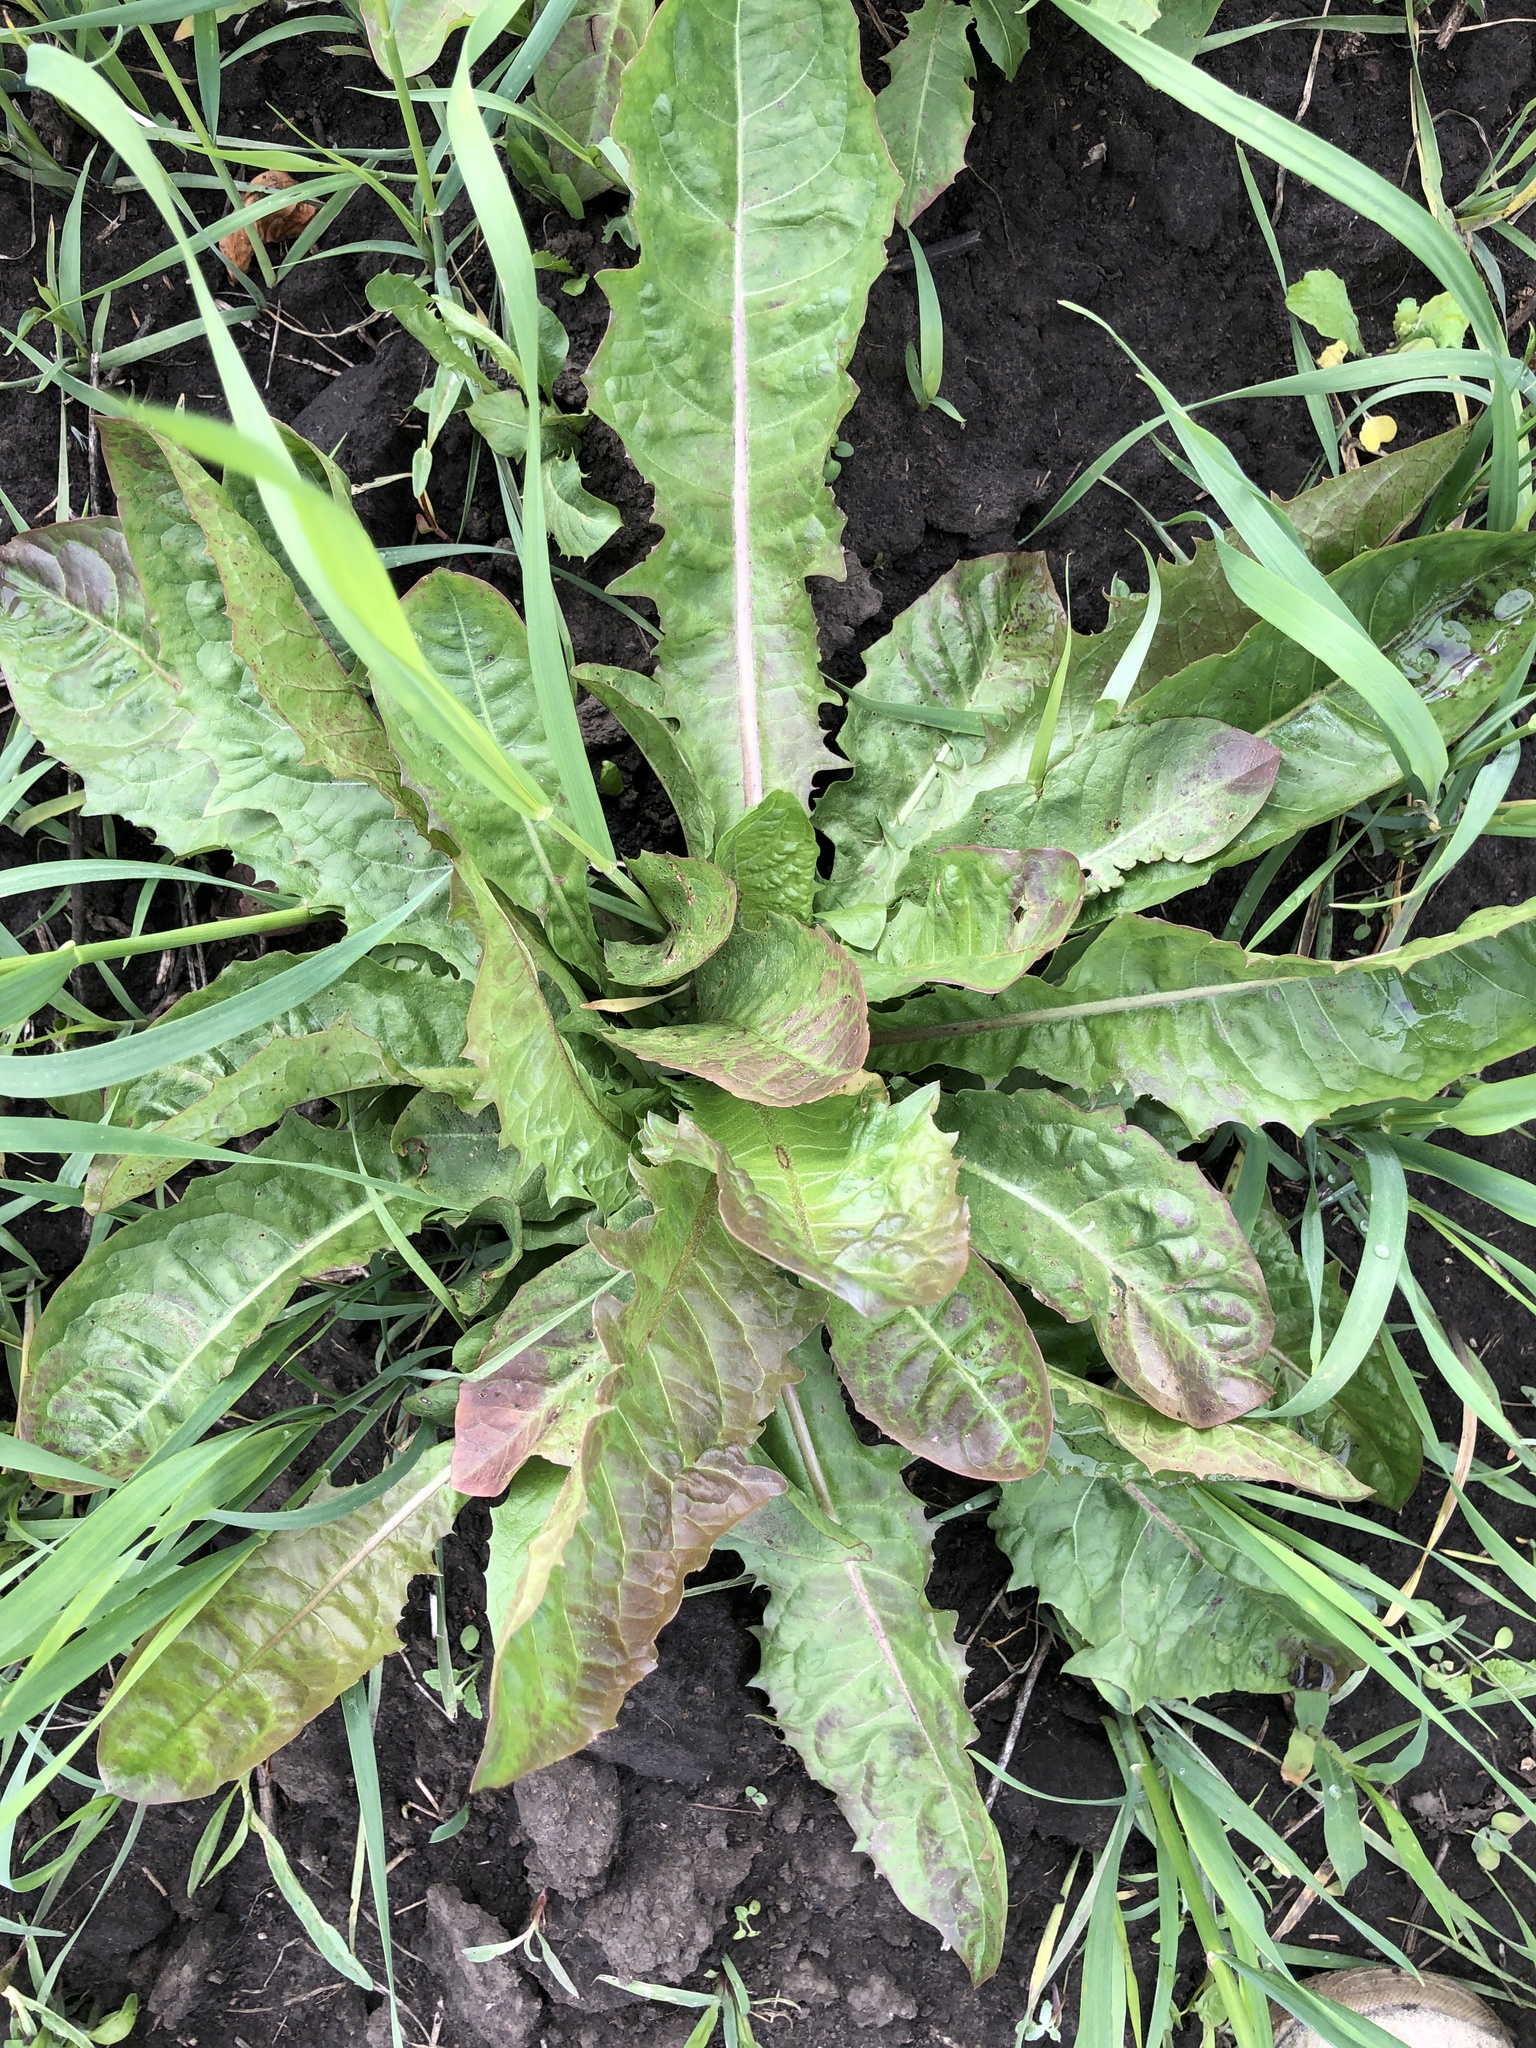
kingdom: Plantae
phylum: Tracheophyta
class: Magnoliopsida
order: Asterales
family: Asteraceae
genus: Taraxacum
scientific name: Taraxacum officinale
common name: Common dandelion
